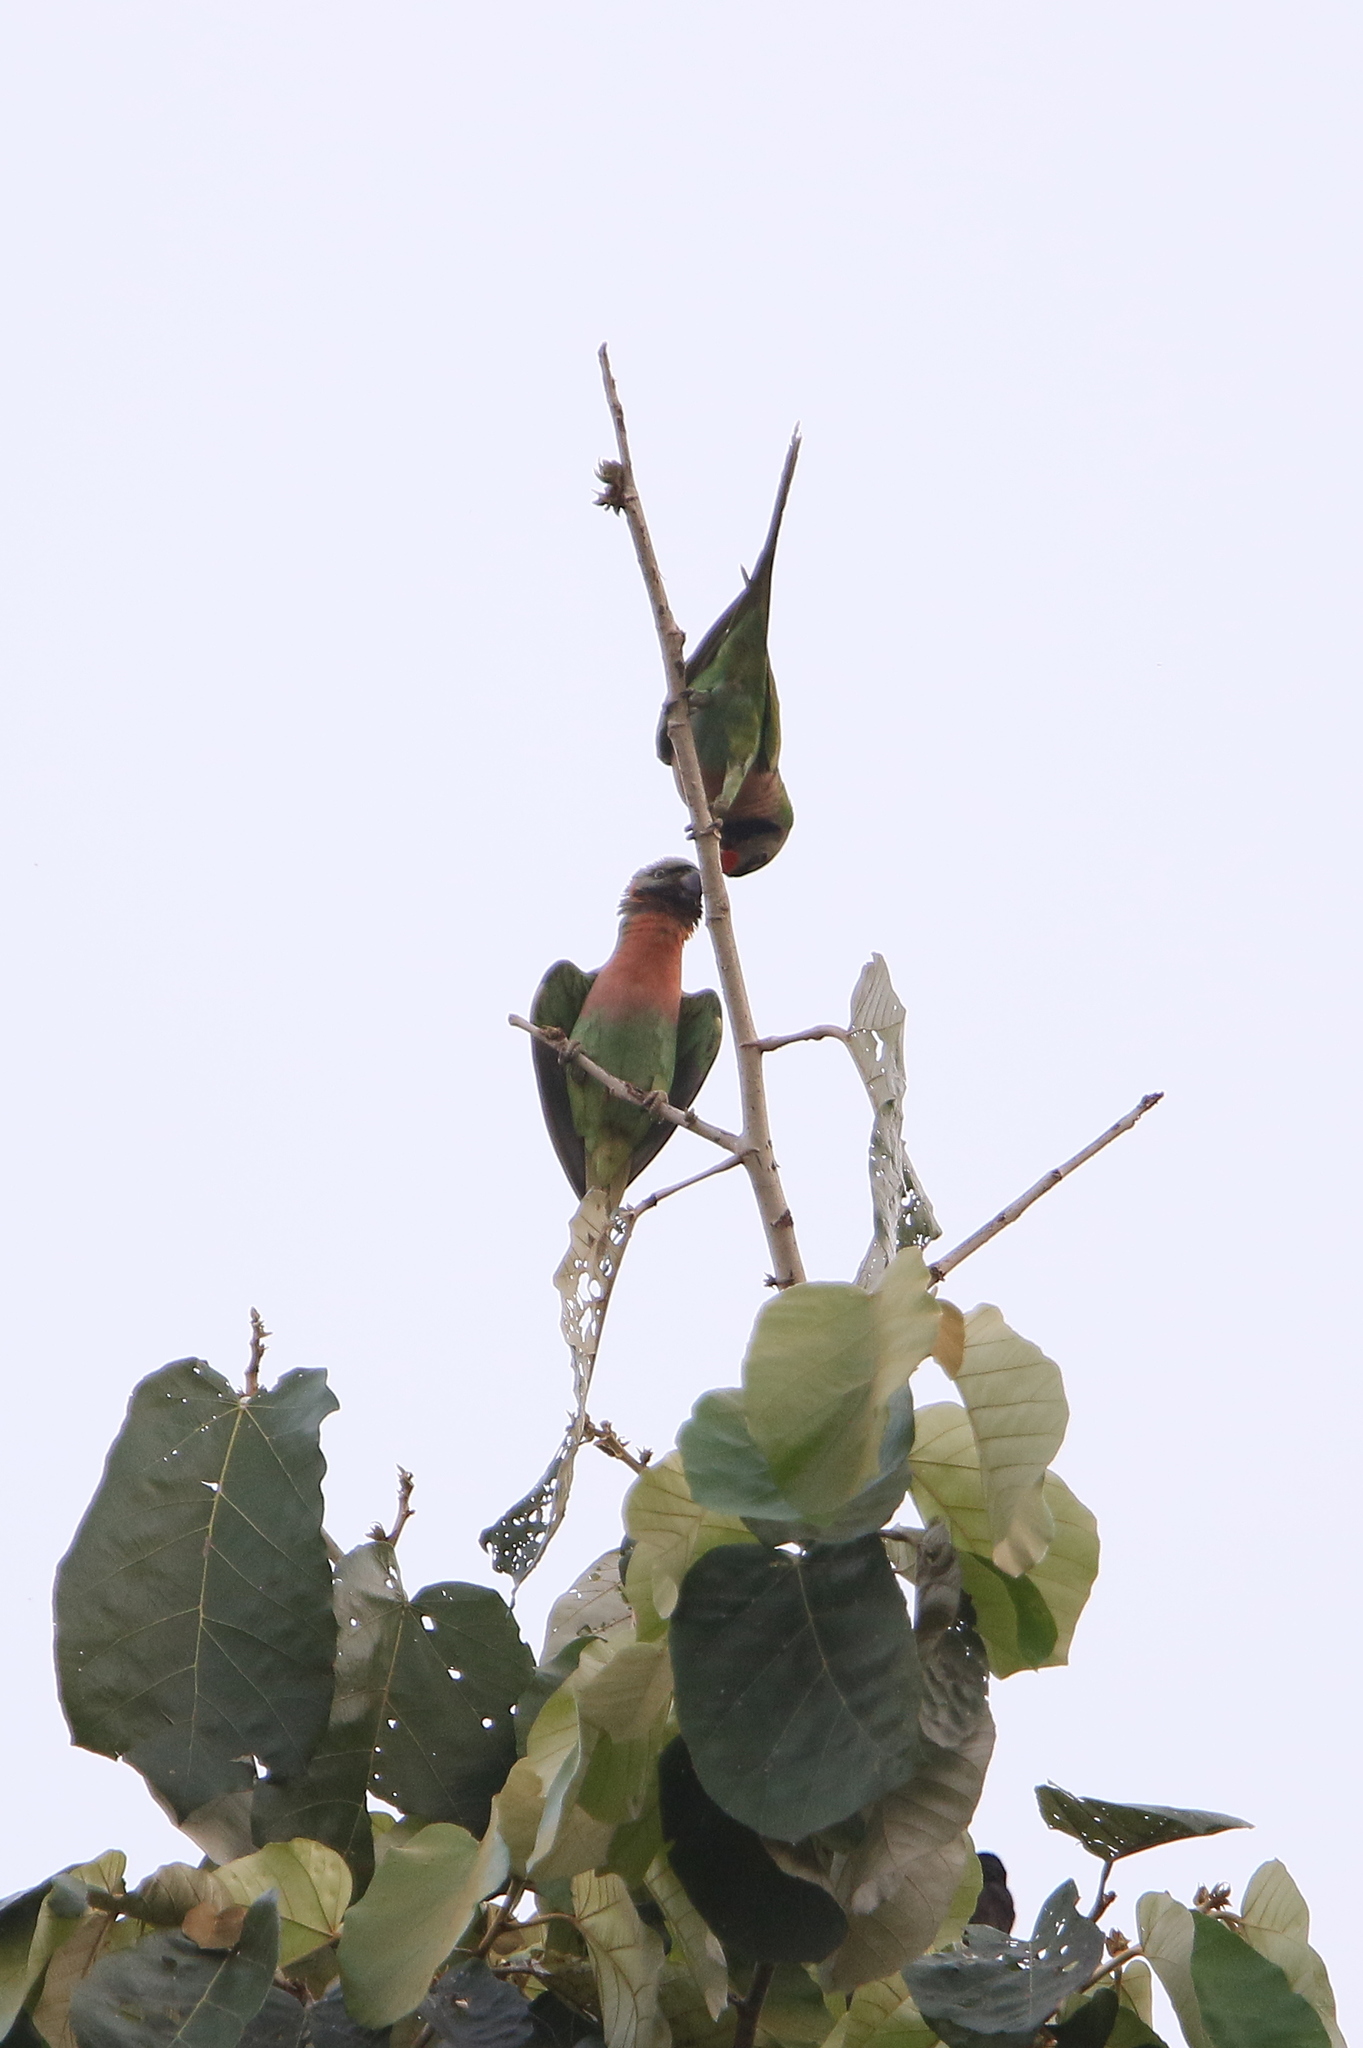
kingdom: Animalia
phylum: Chordata
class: Aves
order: Psittaciformes
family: Psittacidae
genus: Psittacula
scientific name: Psittacula alexandri
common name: Red-breasted parakeet
